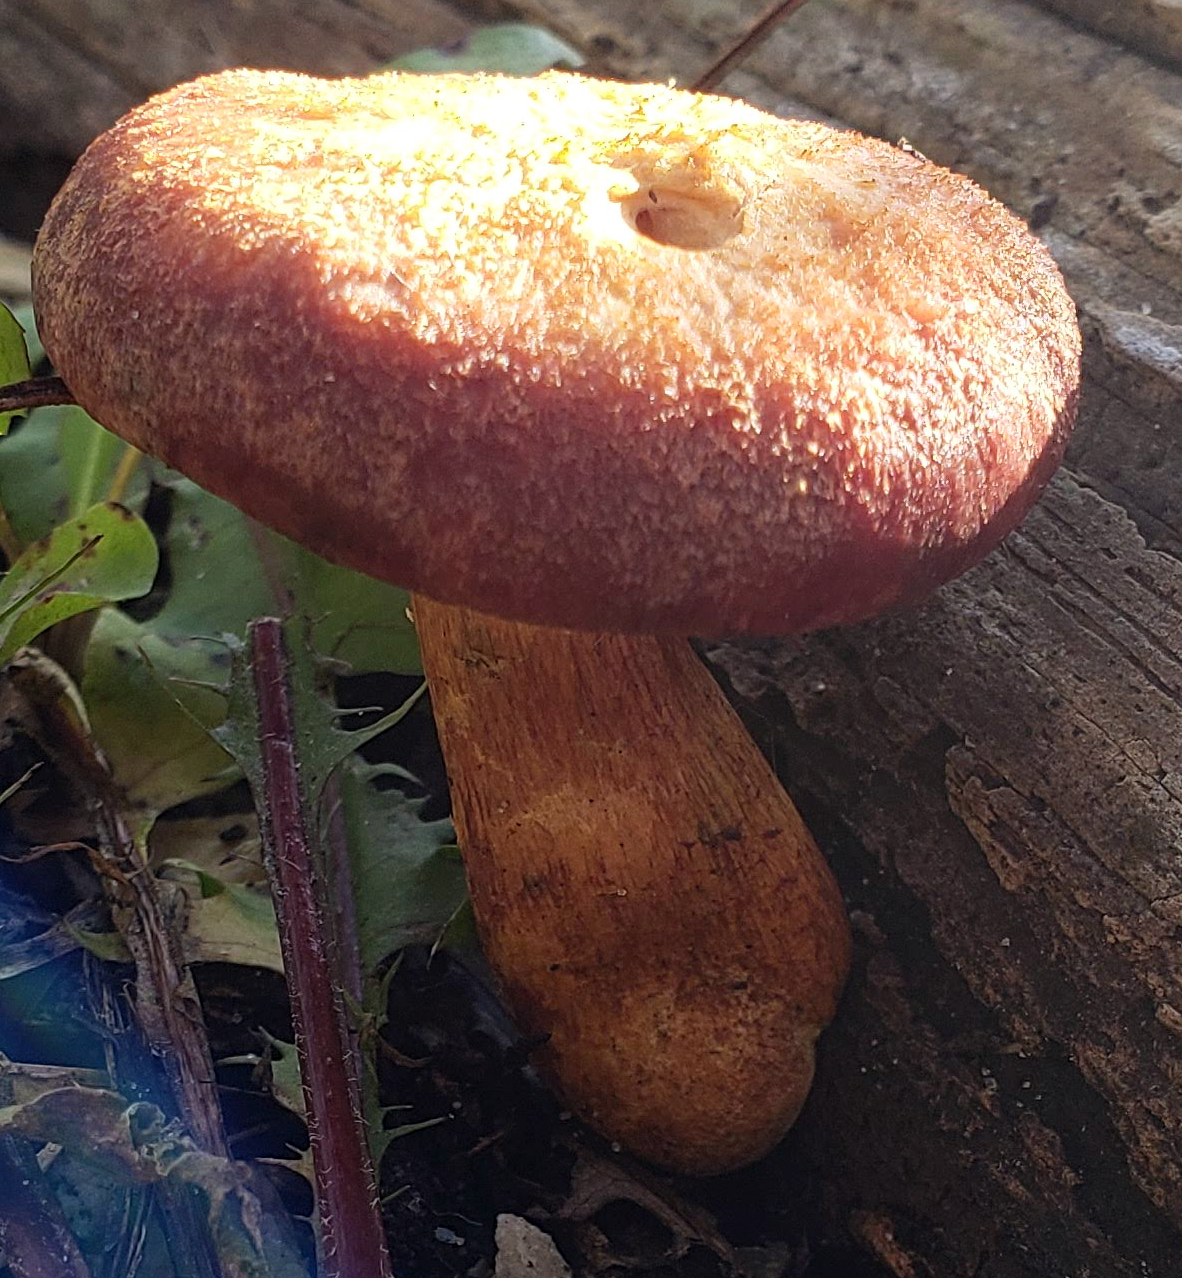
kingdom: Fungi
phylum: Basidiomycota
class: Agaricomycetes
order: Agaricales
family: Hymenogastraceae
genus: Gymnopilus
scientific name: Gymnopilus luteofolius
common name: Yellow-gilled gymnopilus
